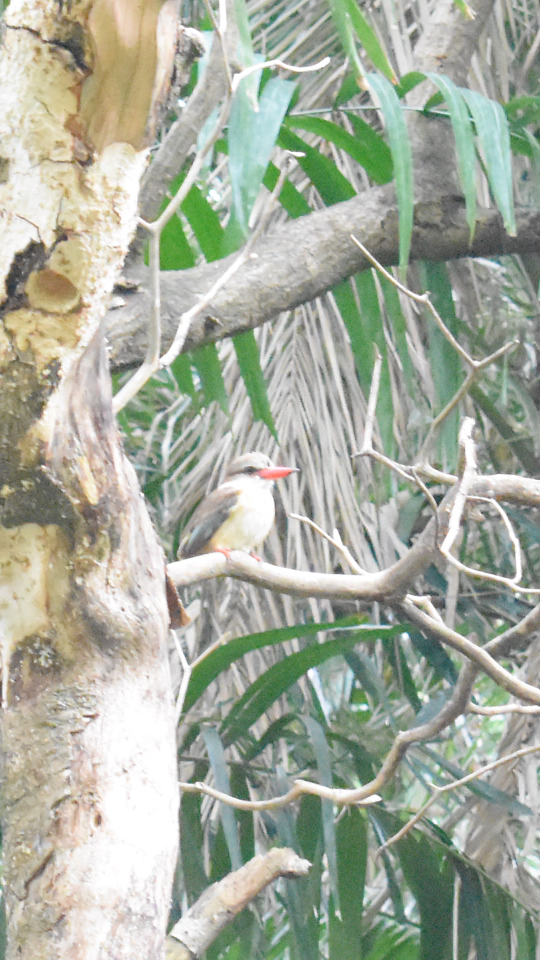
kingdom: Animalia
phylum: Chordata
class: Aves
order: Coraciiformes
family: Alcedinidae
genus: Halcyon
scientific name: Halcyon albiventris
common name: Brown-hooded kingfisher
